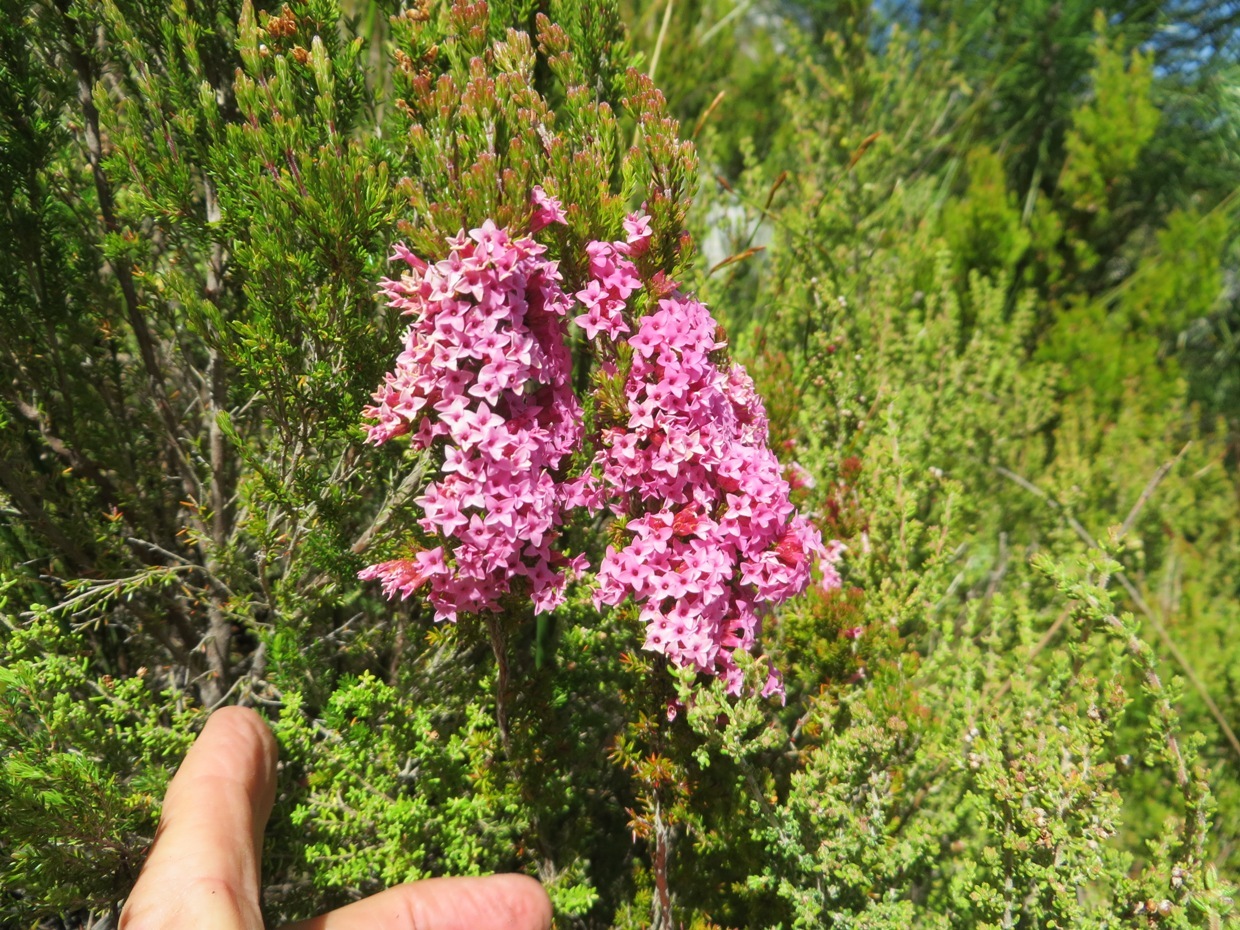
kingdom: Plantae
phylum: Tracheophyta
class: Magnoliopsida
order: Ericales
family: Ericaceae
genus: Erica
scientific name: Erica
